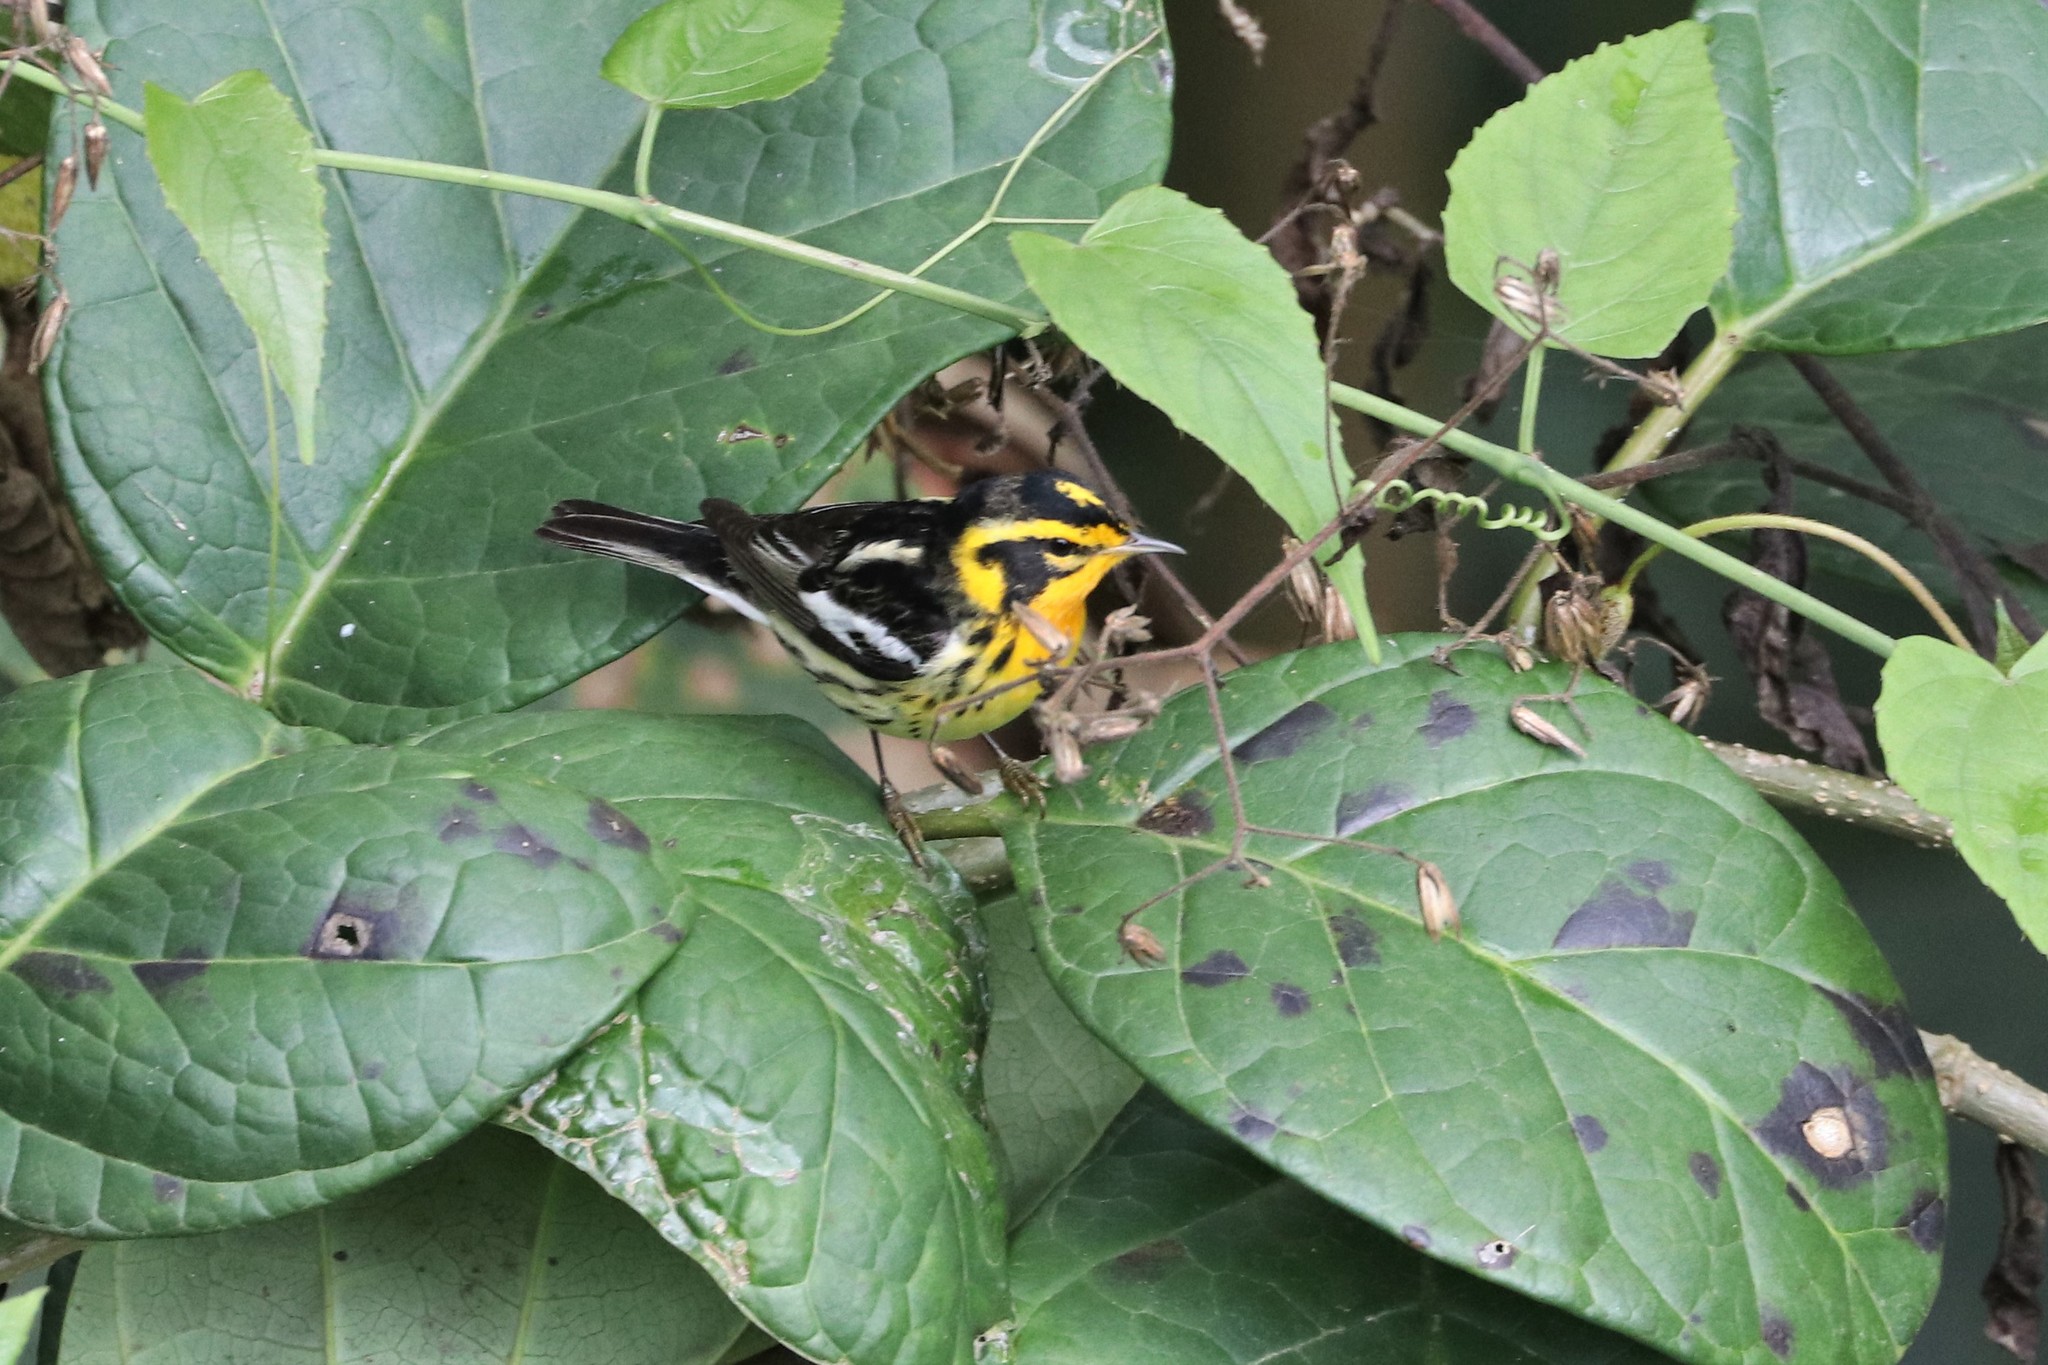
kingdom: Animalia
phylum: Chordata
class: Aves
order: Passeriformes
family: Parulidae
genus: Setophaga
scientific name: Setophaga fusca
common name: Blackburnian warbler
